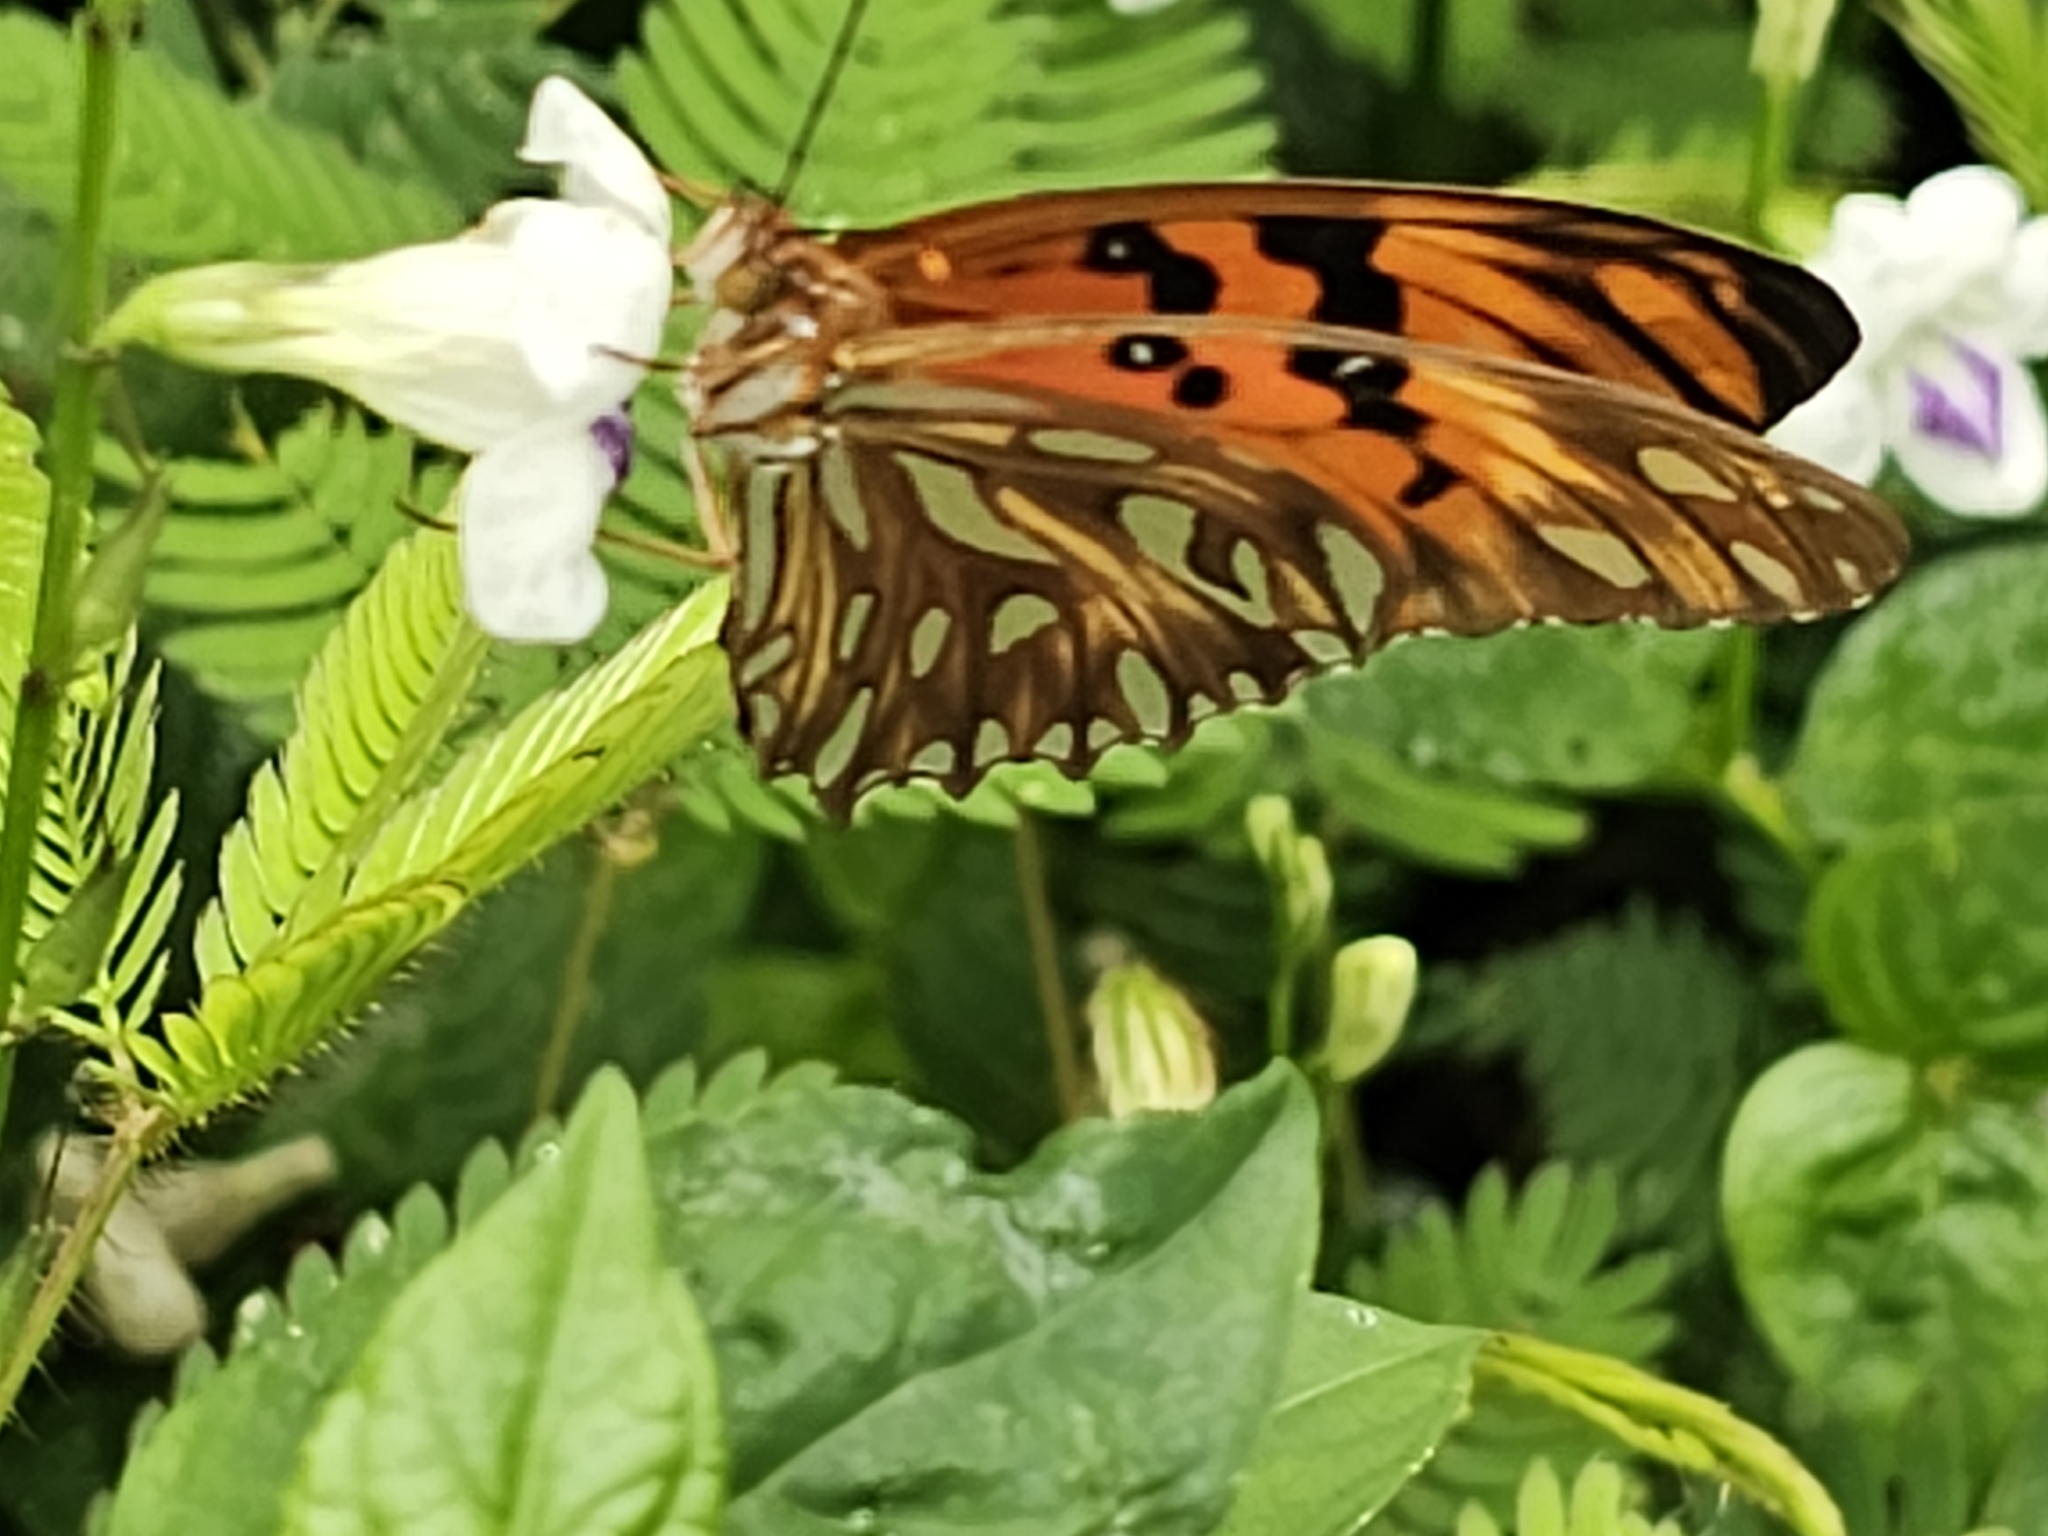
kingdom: Animalia
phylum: Arthropoda
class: Insecta
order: Lepidoptera
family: Nymphalidae
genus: Dione
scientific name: Dione vanillae
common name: Gulf fritillary
